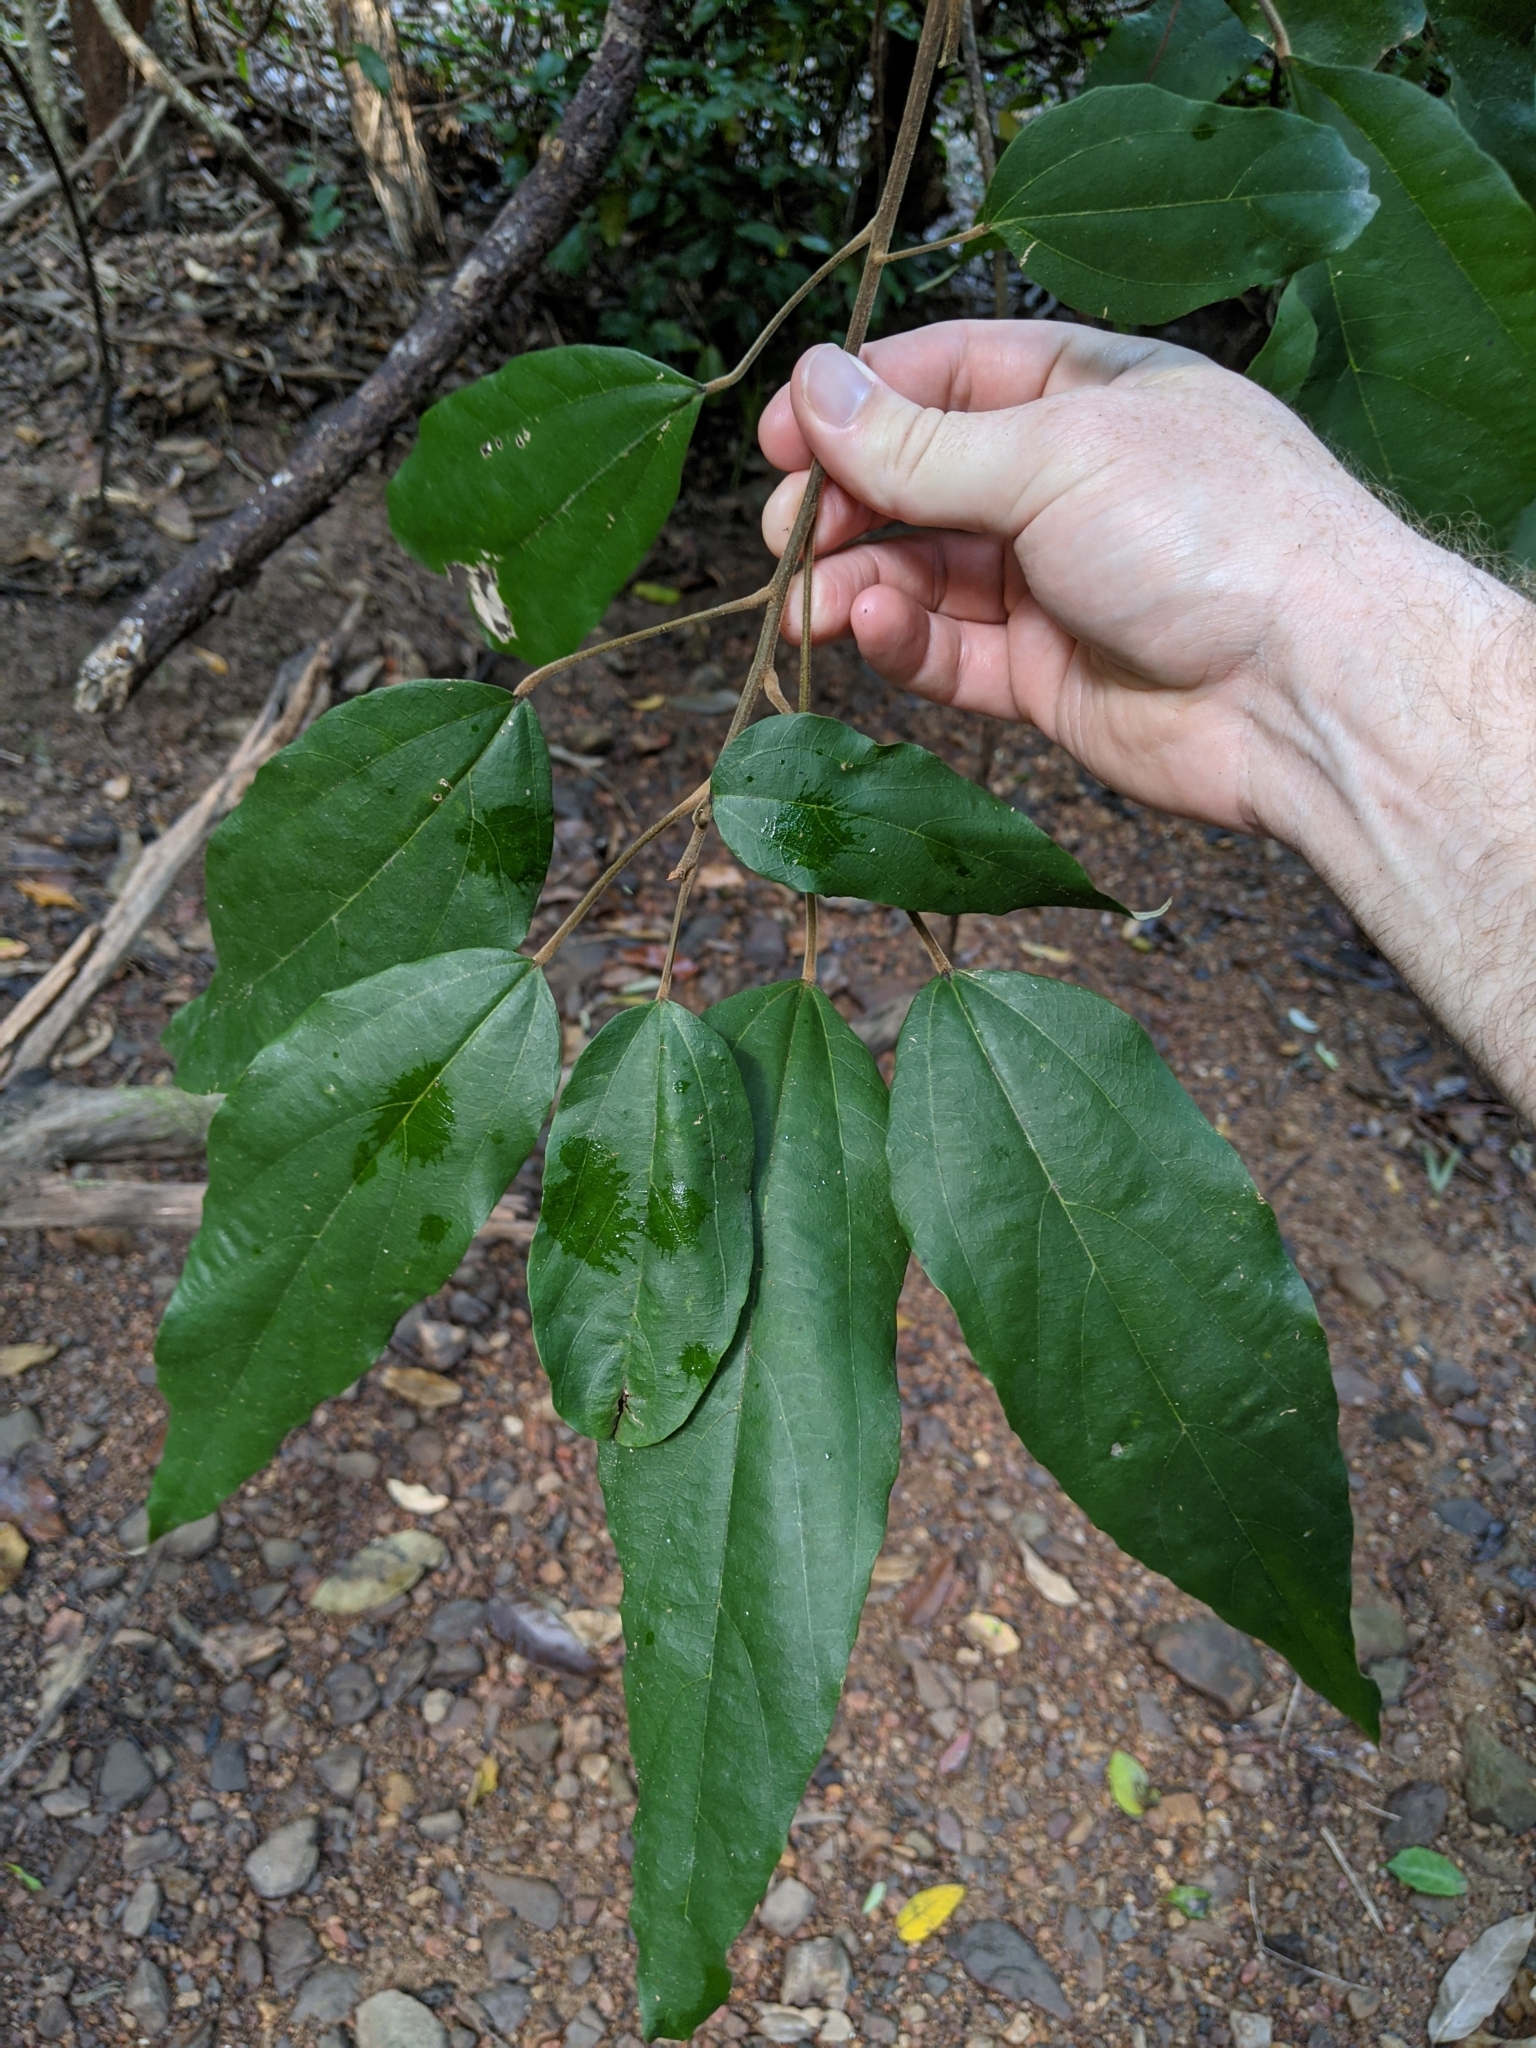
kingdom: Plantae
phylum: Tracheophyta
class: Magnoliopsida
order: Malpighiales
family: Euphorbiaceae
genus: Mallotus
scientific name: Mallotus philippensis
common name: Kamala tree
